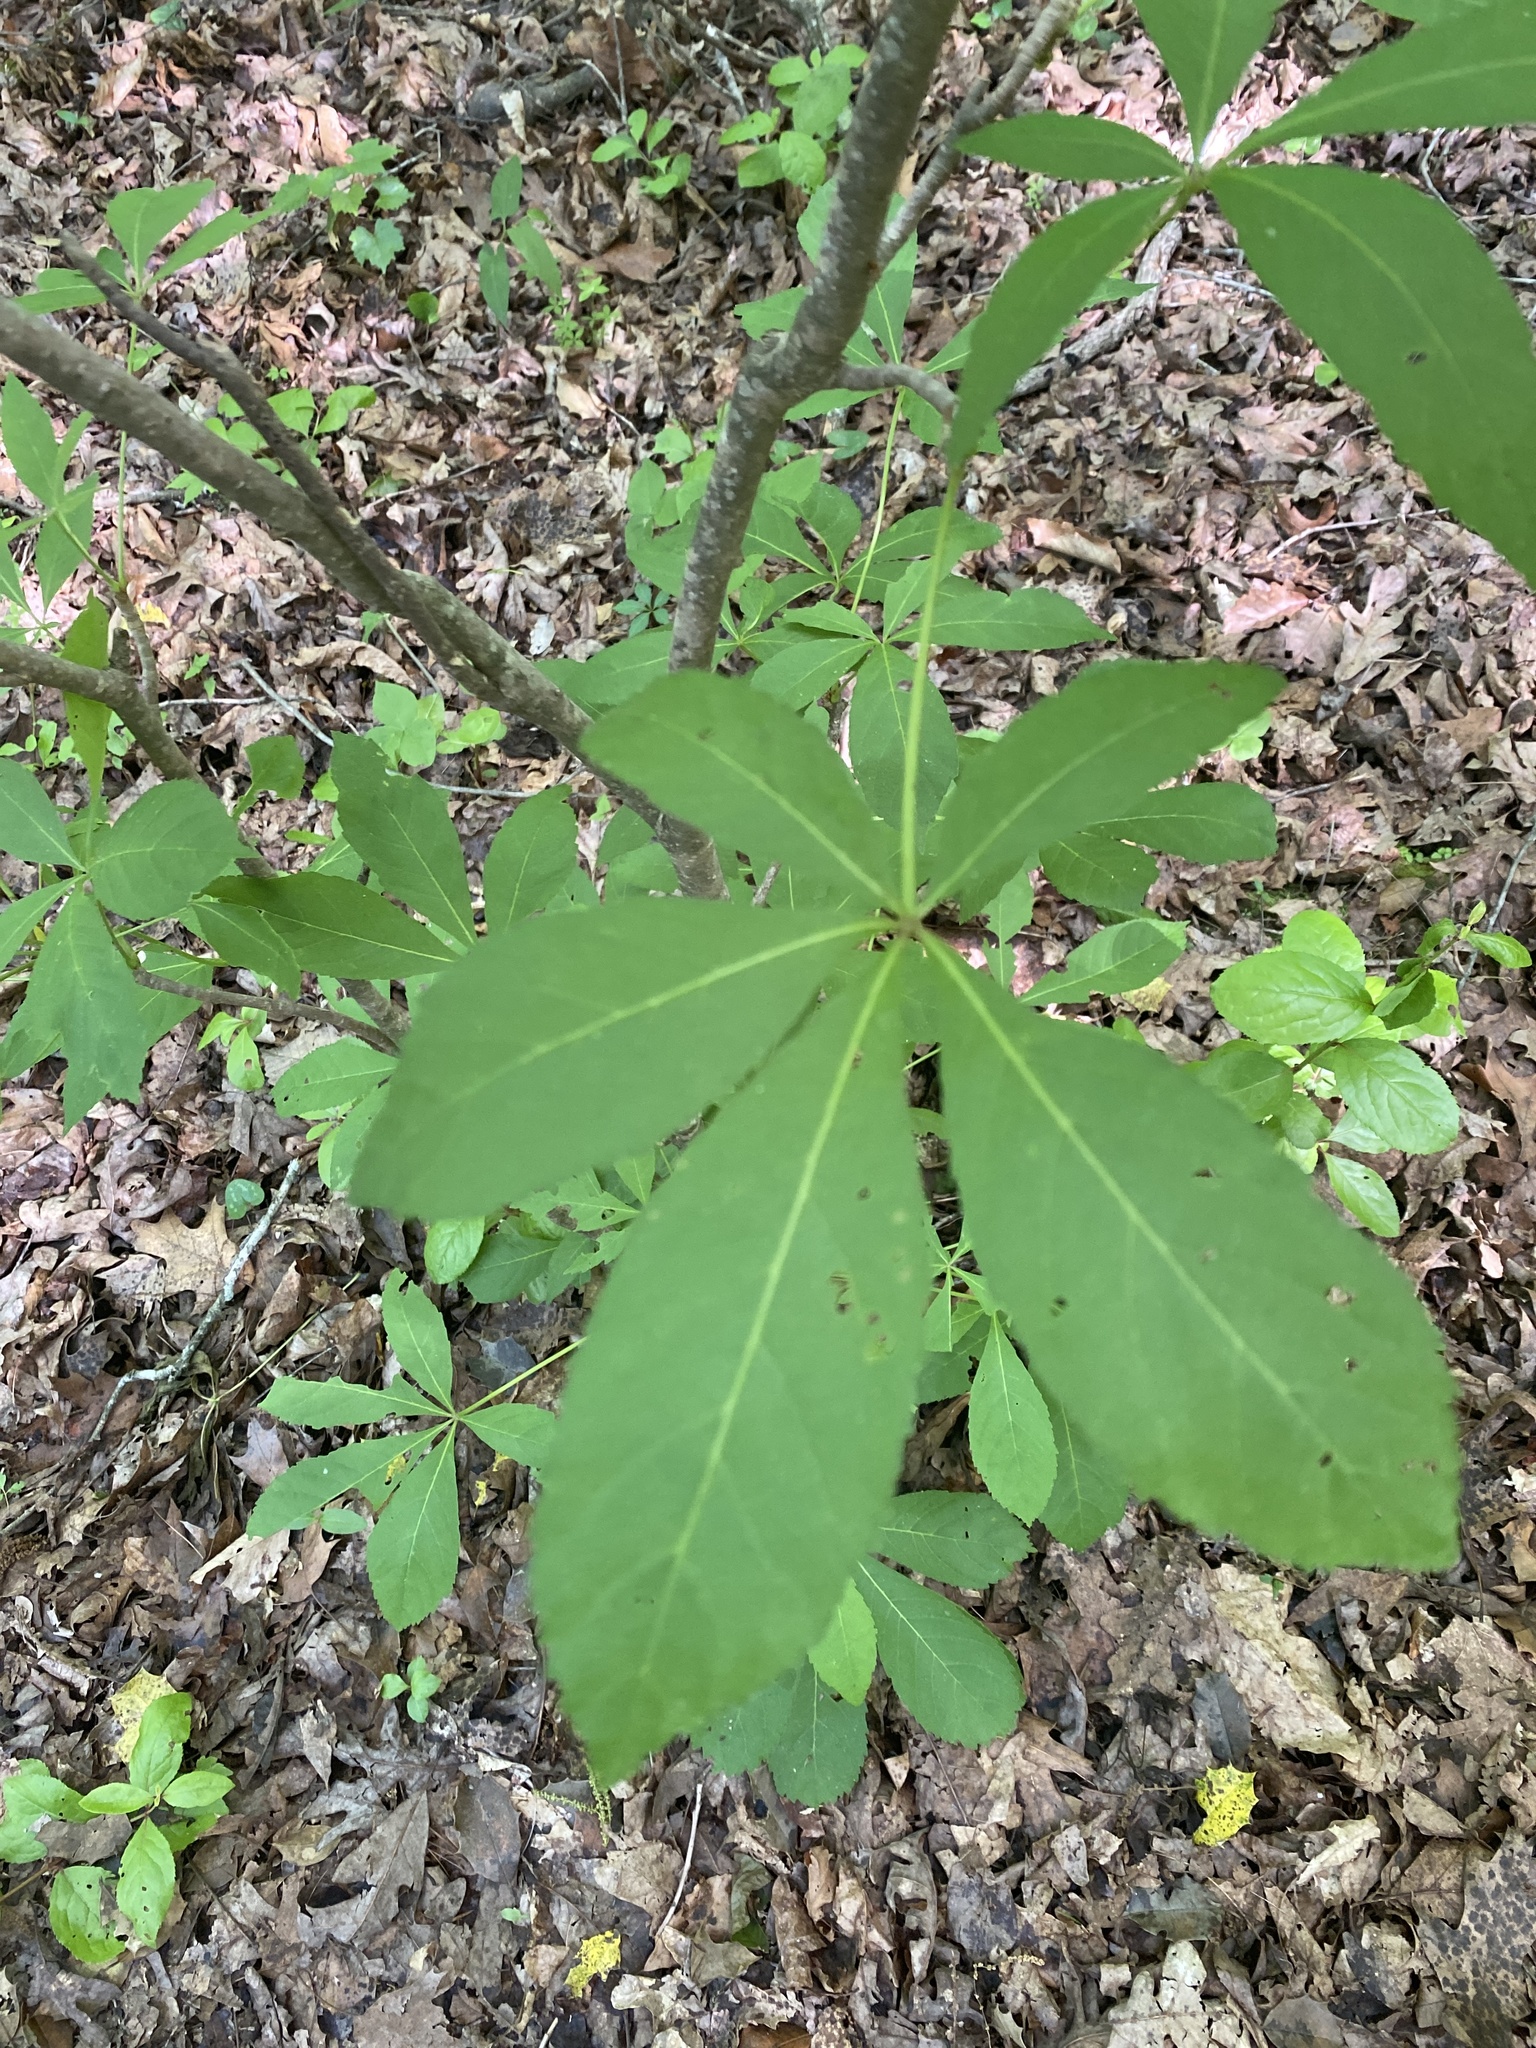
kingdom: Plantae
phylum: Tracheophyta
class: Magnoliopsida
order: Sapindales
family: Sapindaceae
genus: Aesculus
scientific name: Aesculus sylvatica
